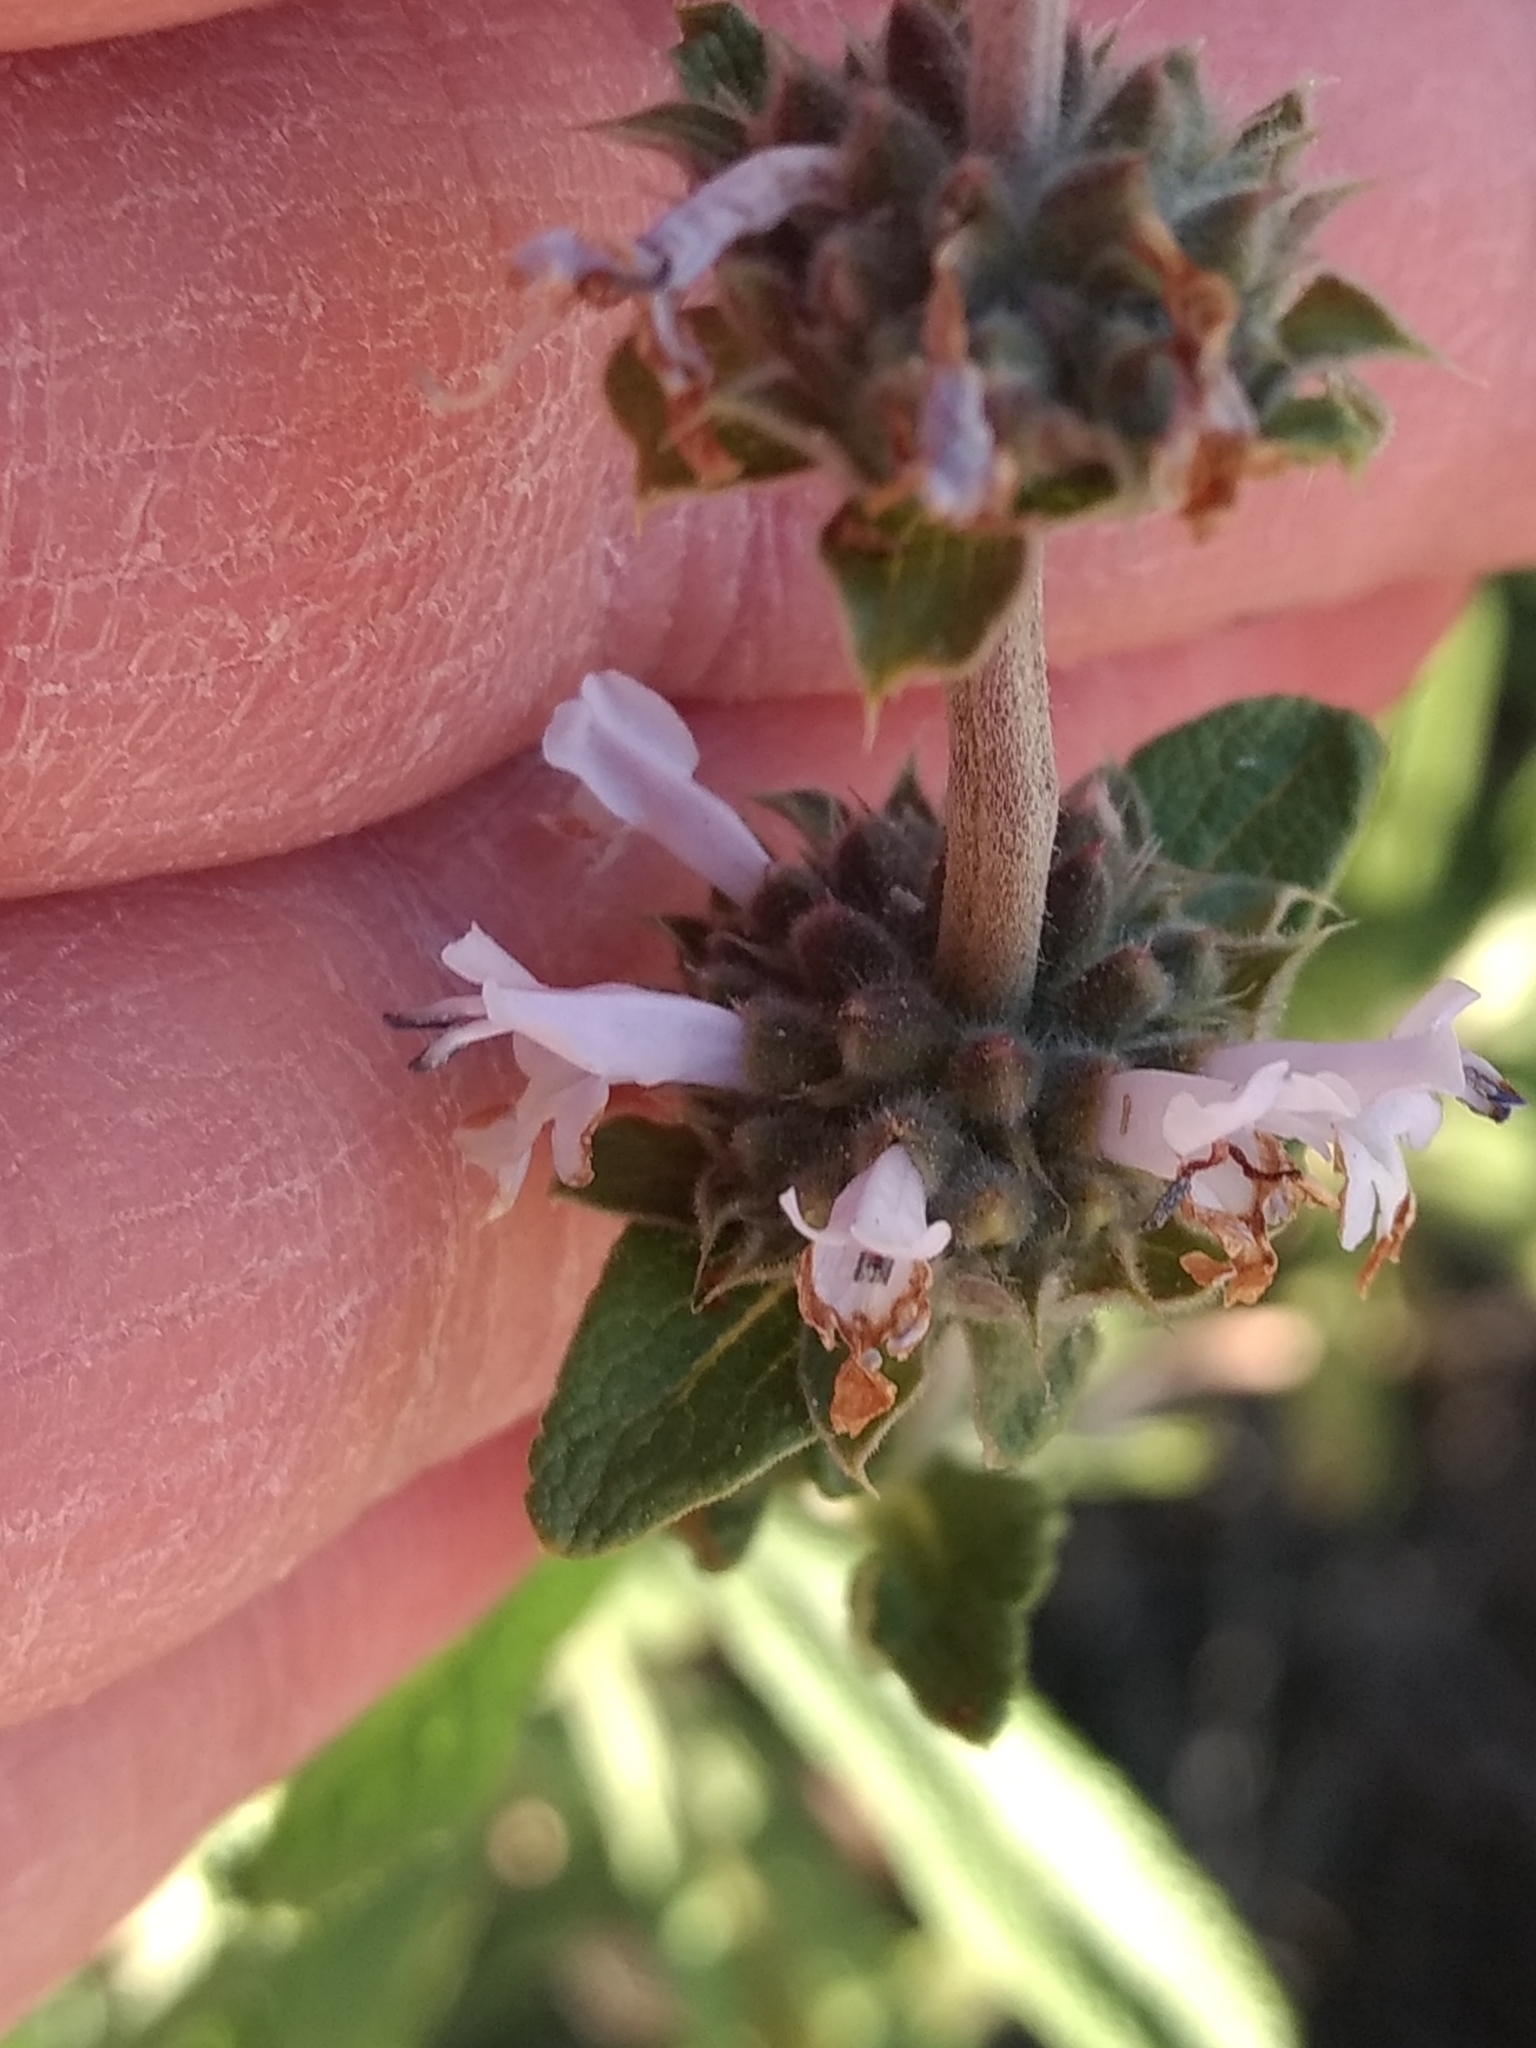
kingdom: Plantae
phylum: Tracheophyta
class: Magnoliopsida
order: Lamiales
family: Lamiaceae
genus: Salvia
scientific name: Salvia mellifera
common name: Black sage
